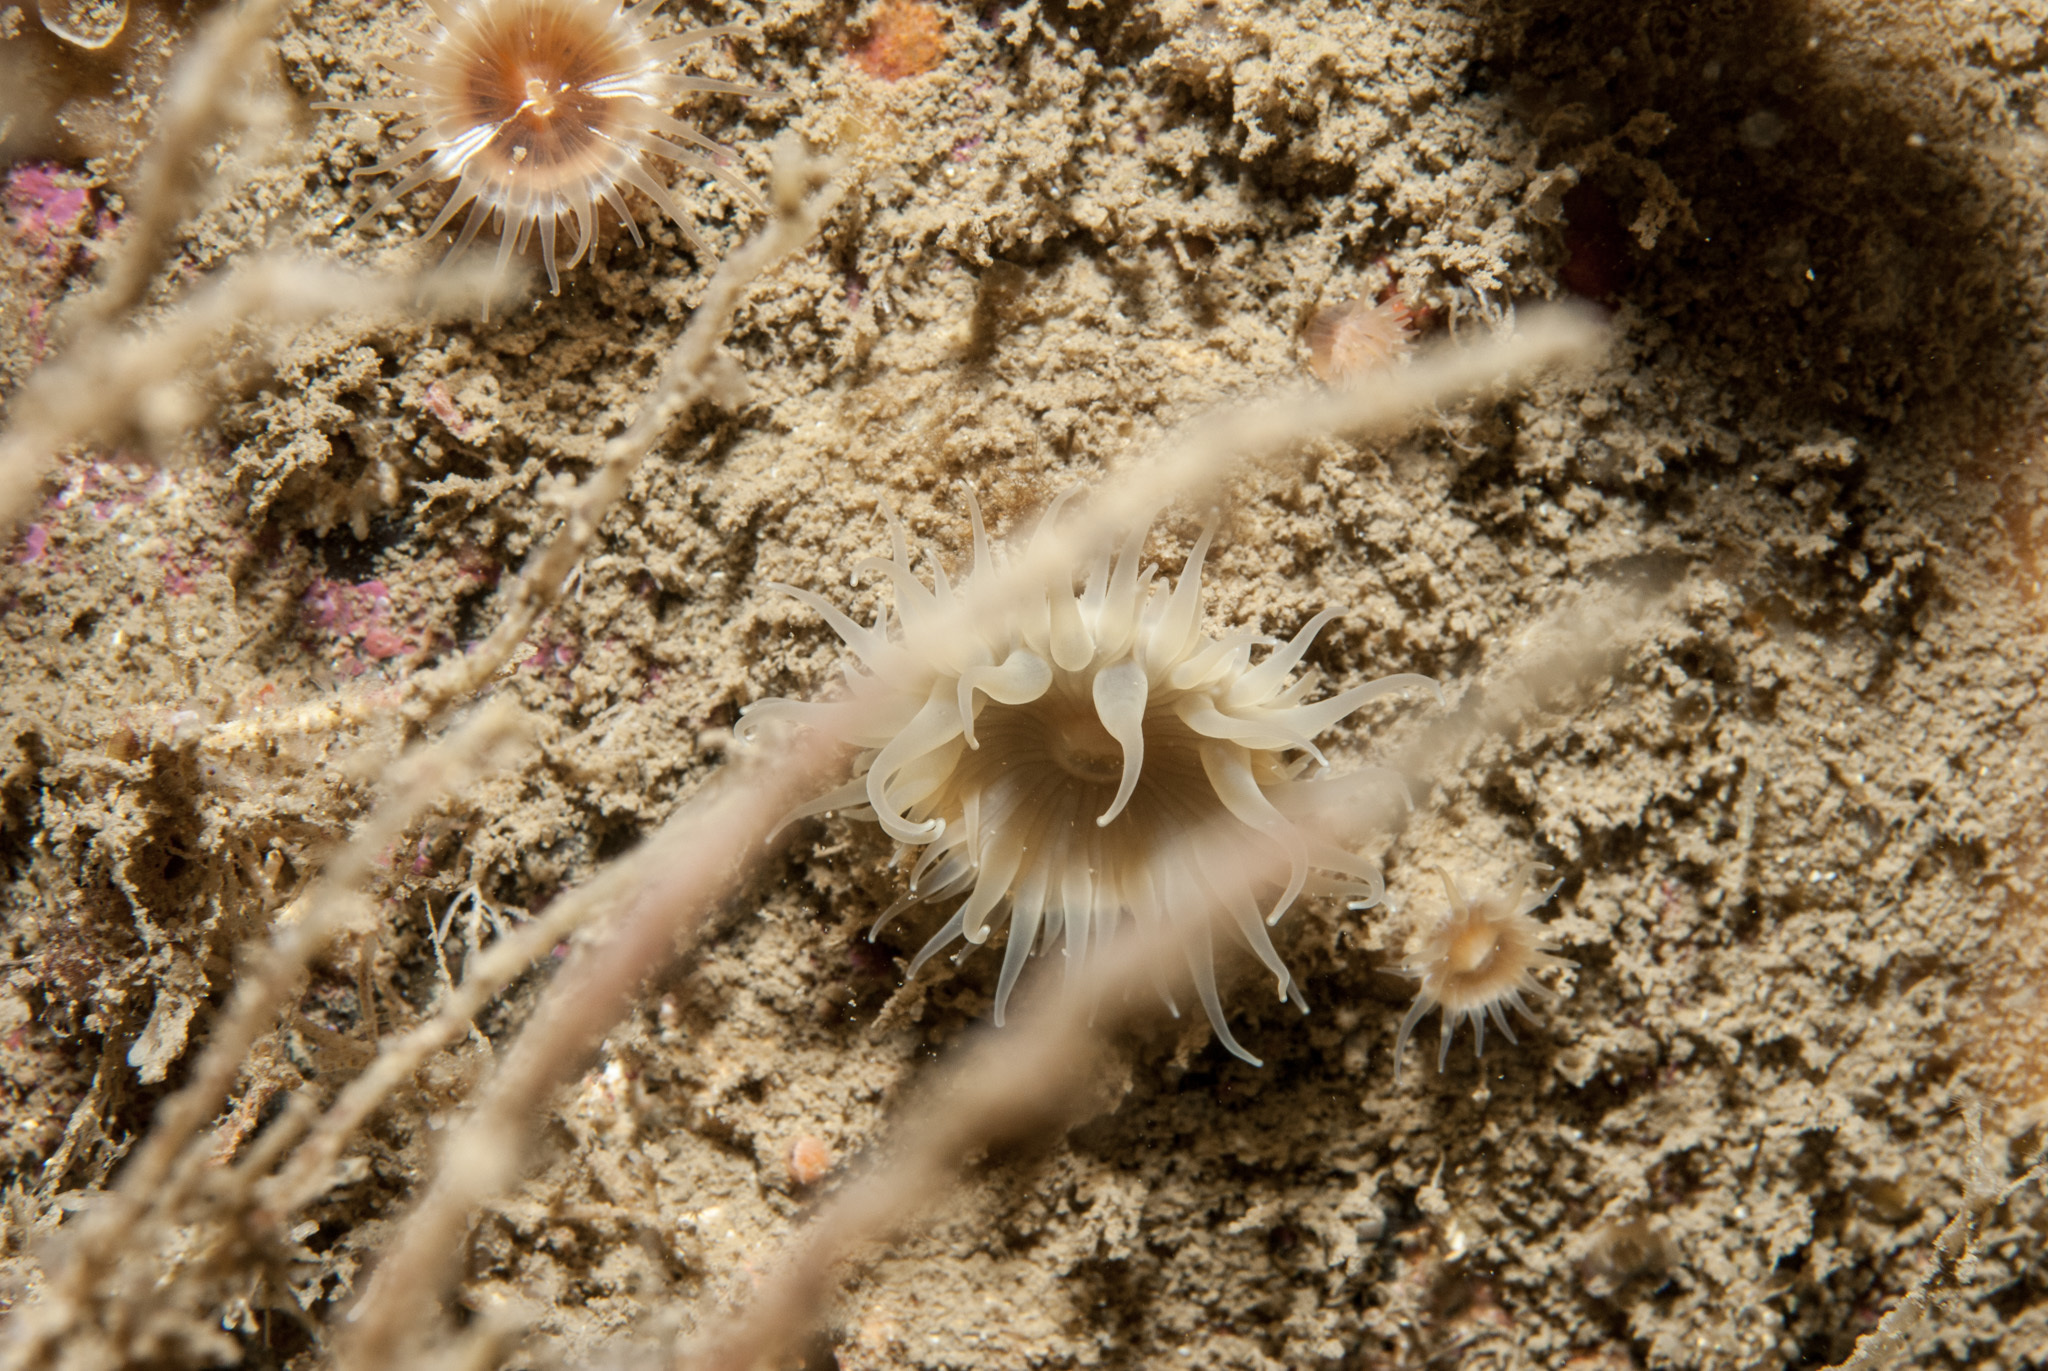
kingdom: Animalia
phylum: Cnidaria
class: Anthozoa
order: Actiniaria
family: Hormathiidae
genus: Hormathia
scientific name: Hormathia coronata
